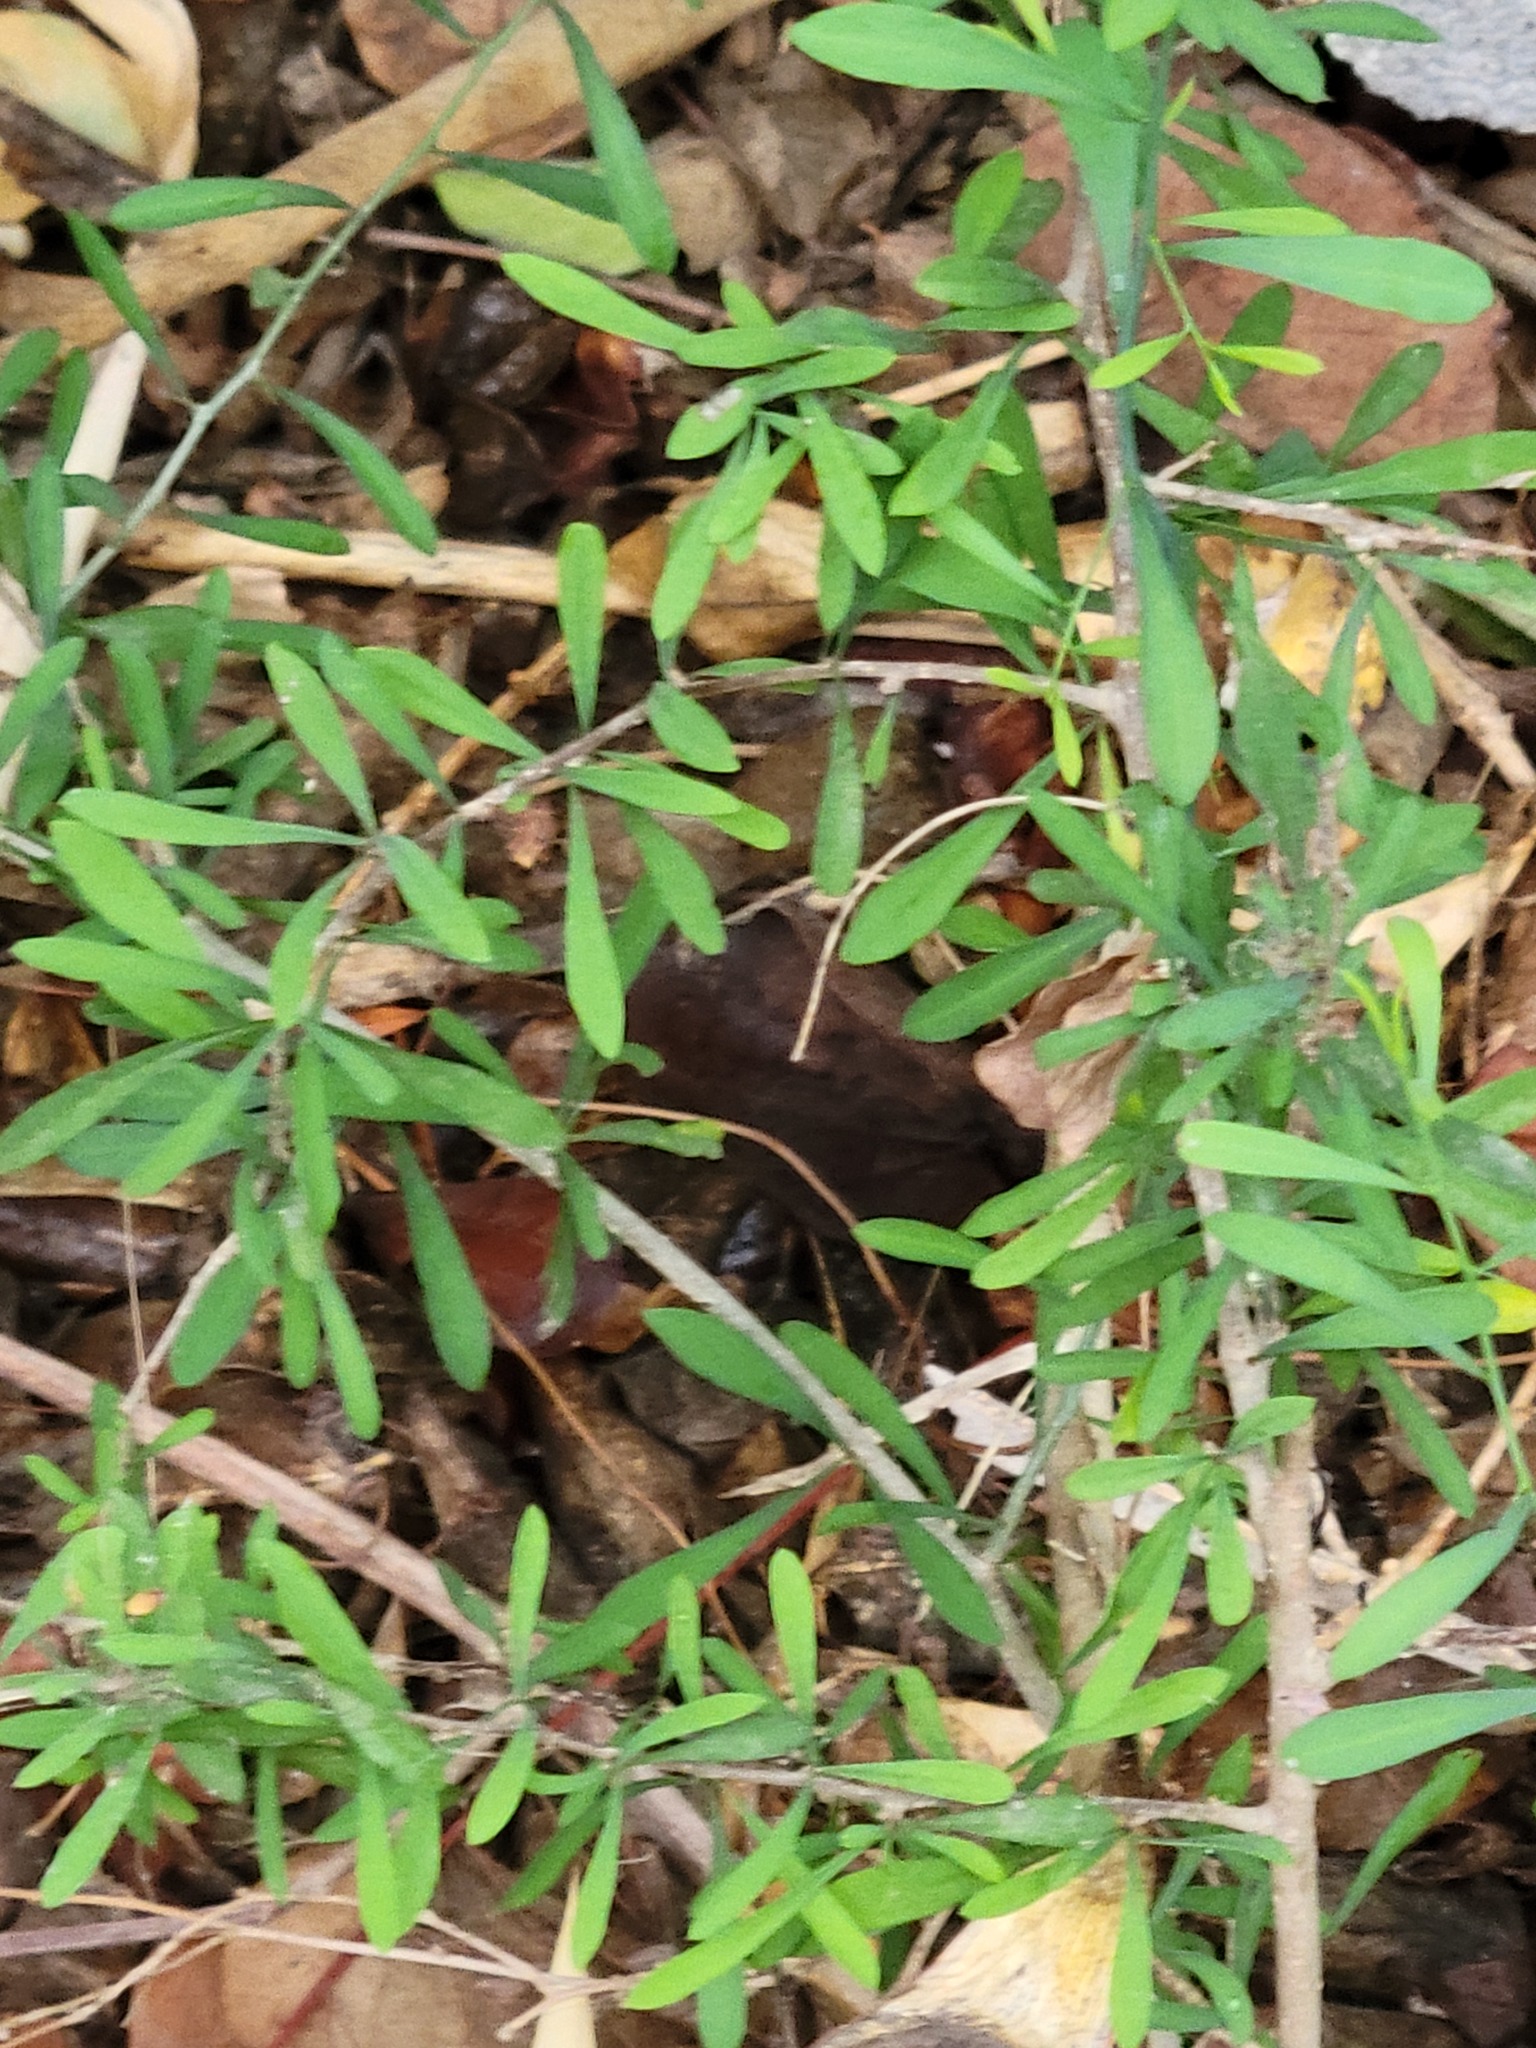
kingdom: Plantae
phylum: Tracheophyta
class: Magnoliopsida
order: Caryophyllales
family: Achatocarpaceae
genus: Phaulothamnus
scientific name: Phaulothamnus spinescens
